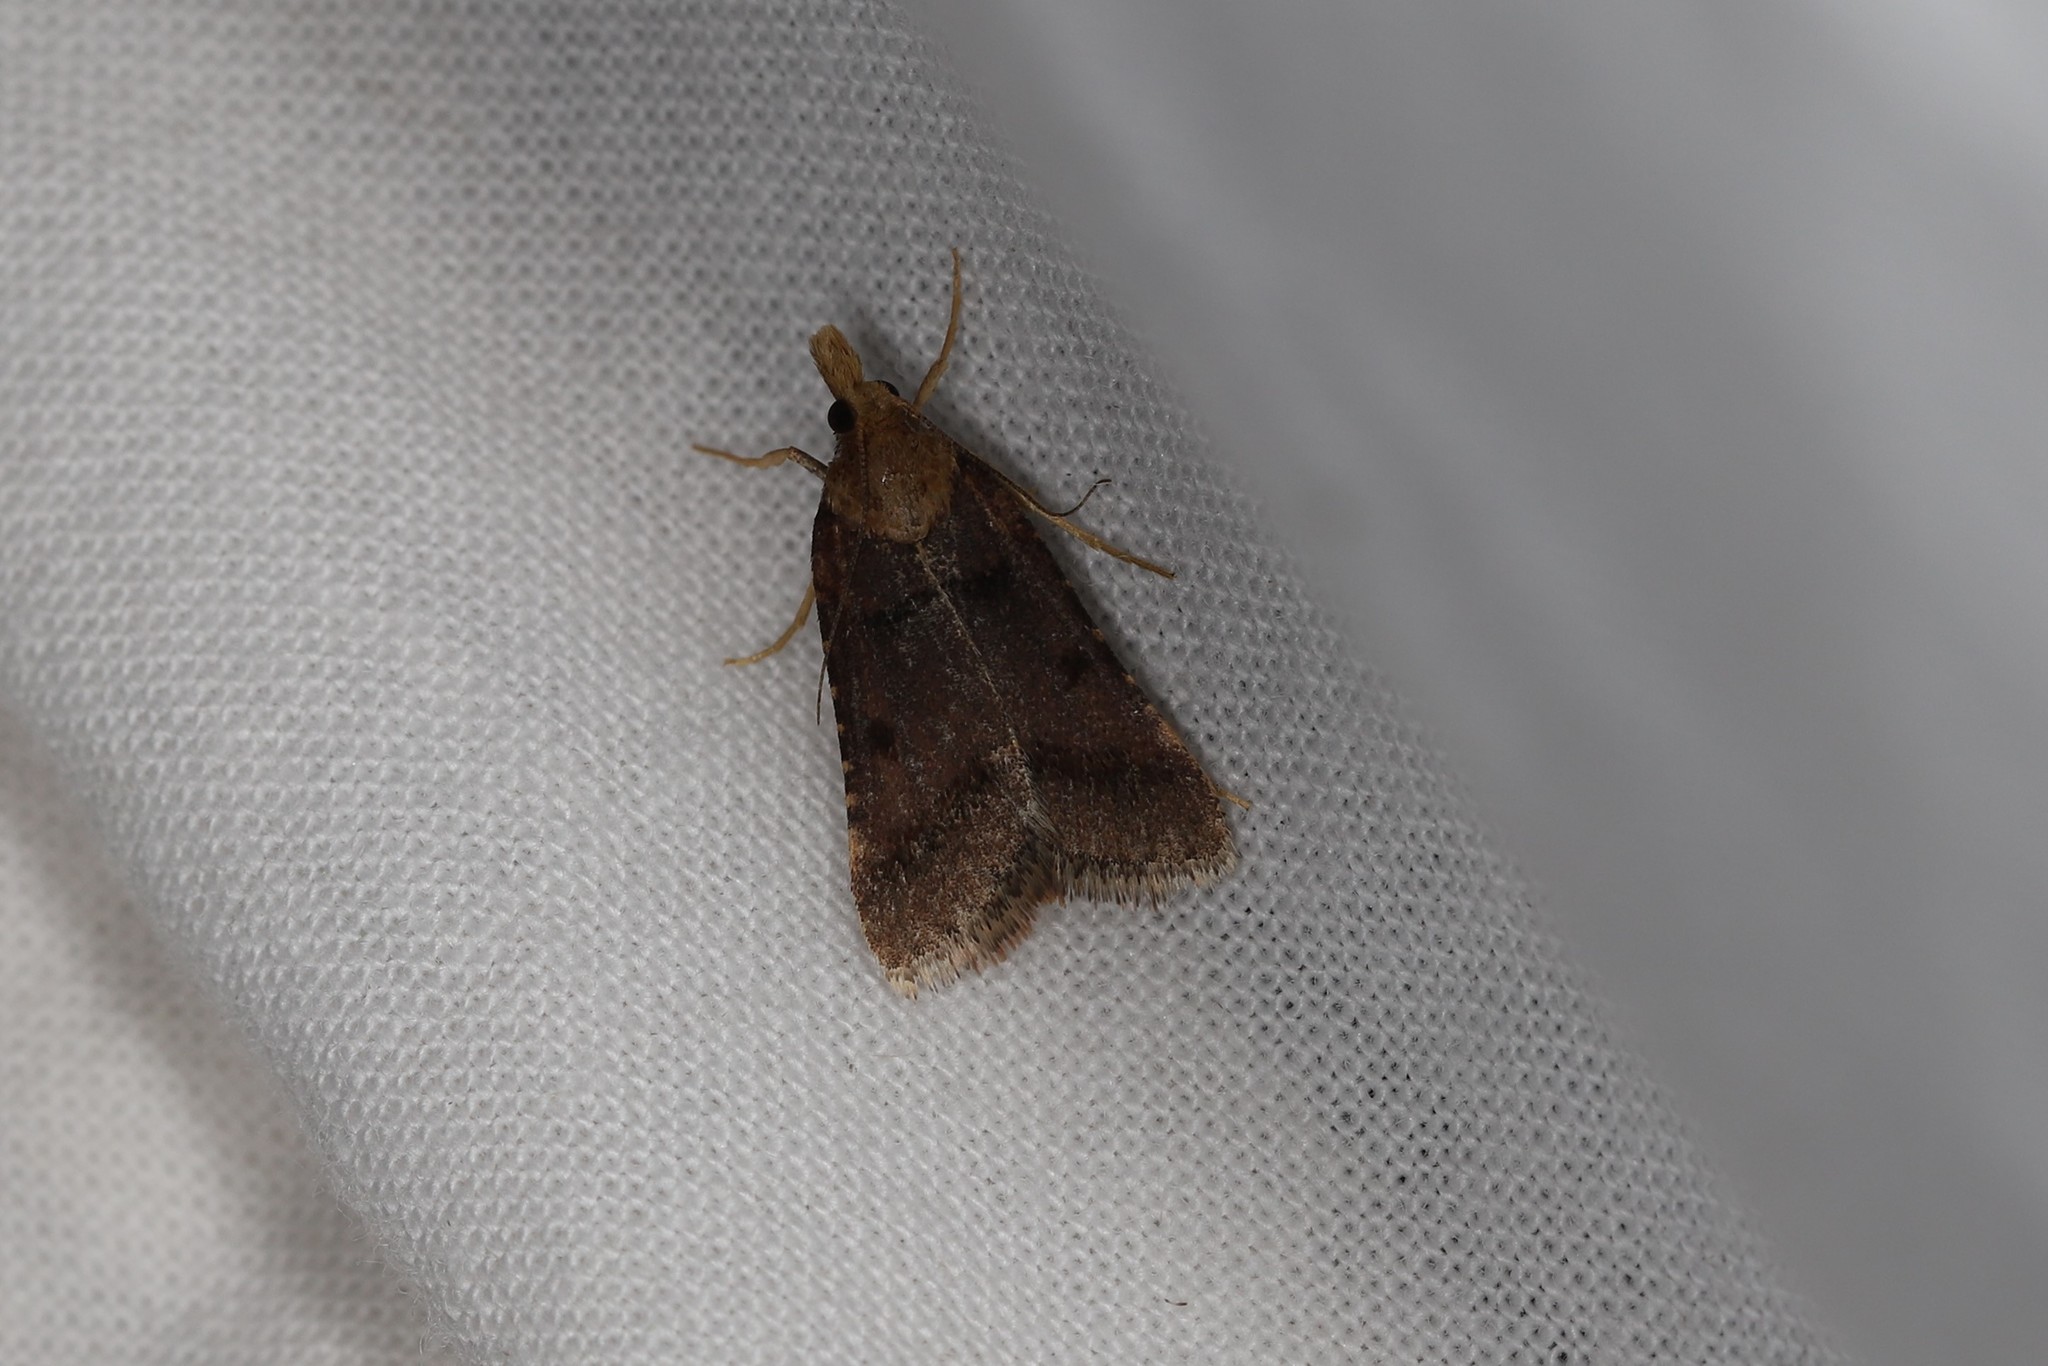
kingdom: Animalia
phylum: Arthropoda
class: Insecta
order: Lepidoptera
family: Pyralidae
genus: Stemmatophora
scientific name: Stemmatophora brunnealis
